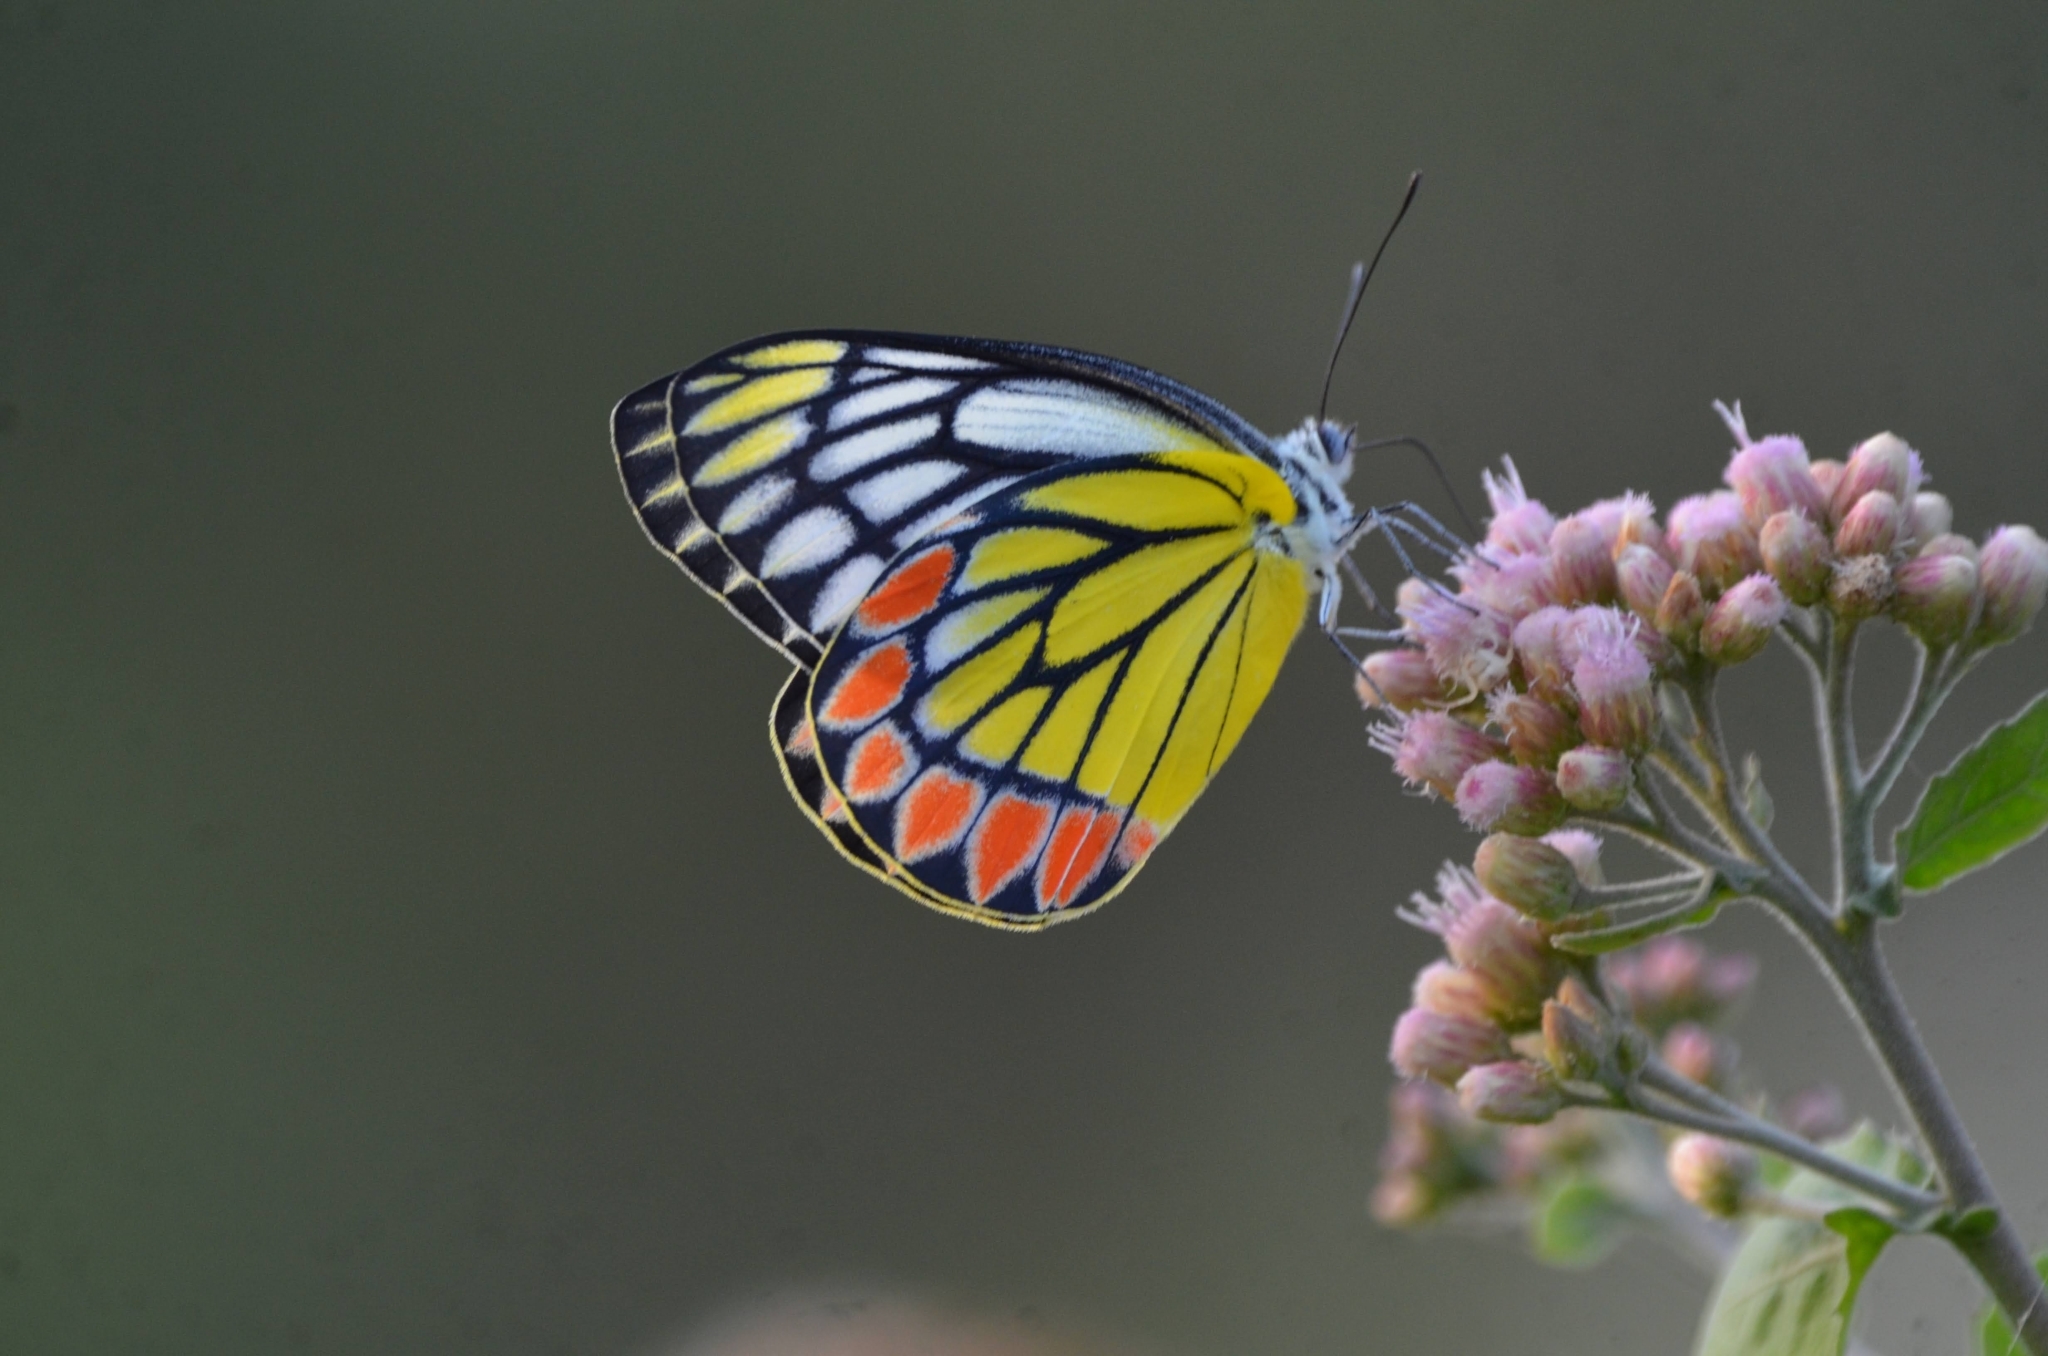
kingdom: Animalia
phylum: Arthropoda
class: Insecta
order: Lepidoptera
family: Pieridae
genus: Delias
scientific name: Delias eucharis
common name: Common jezebel
